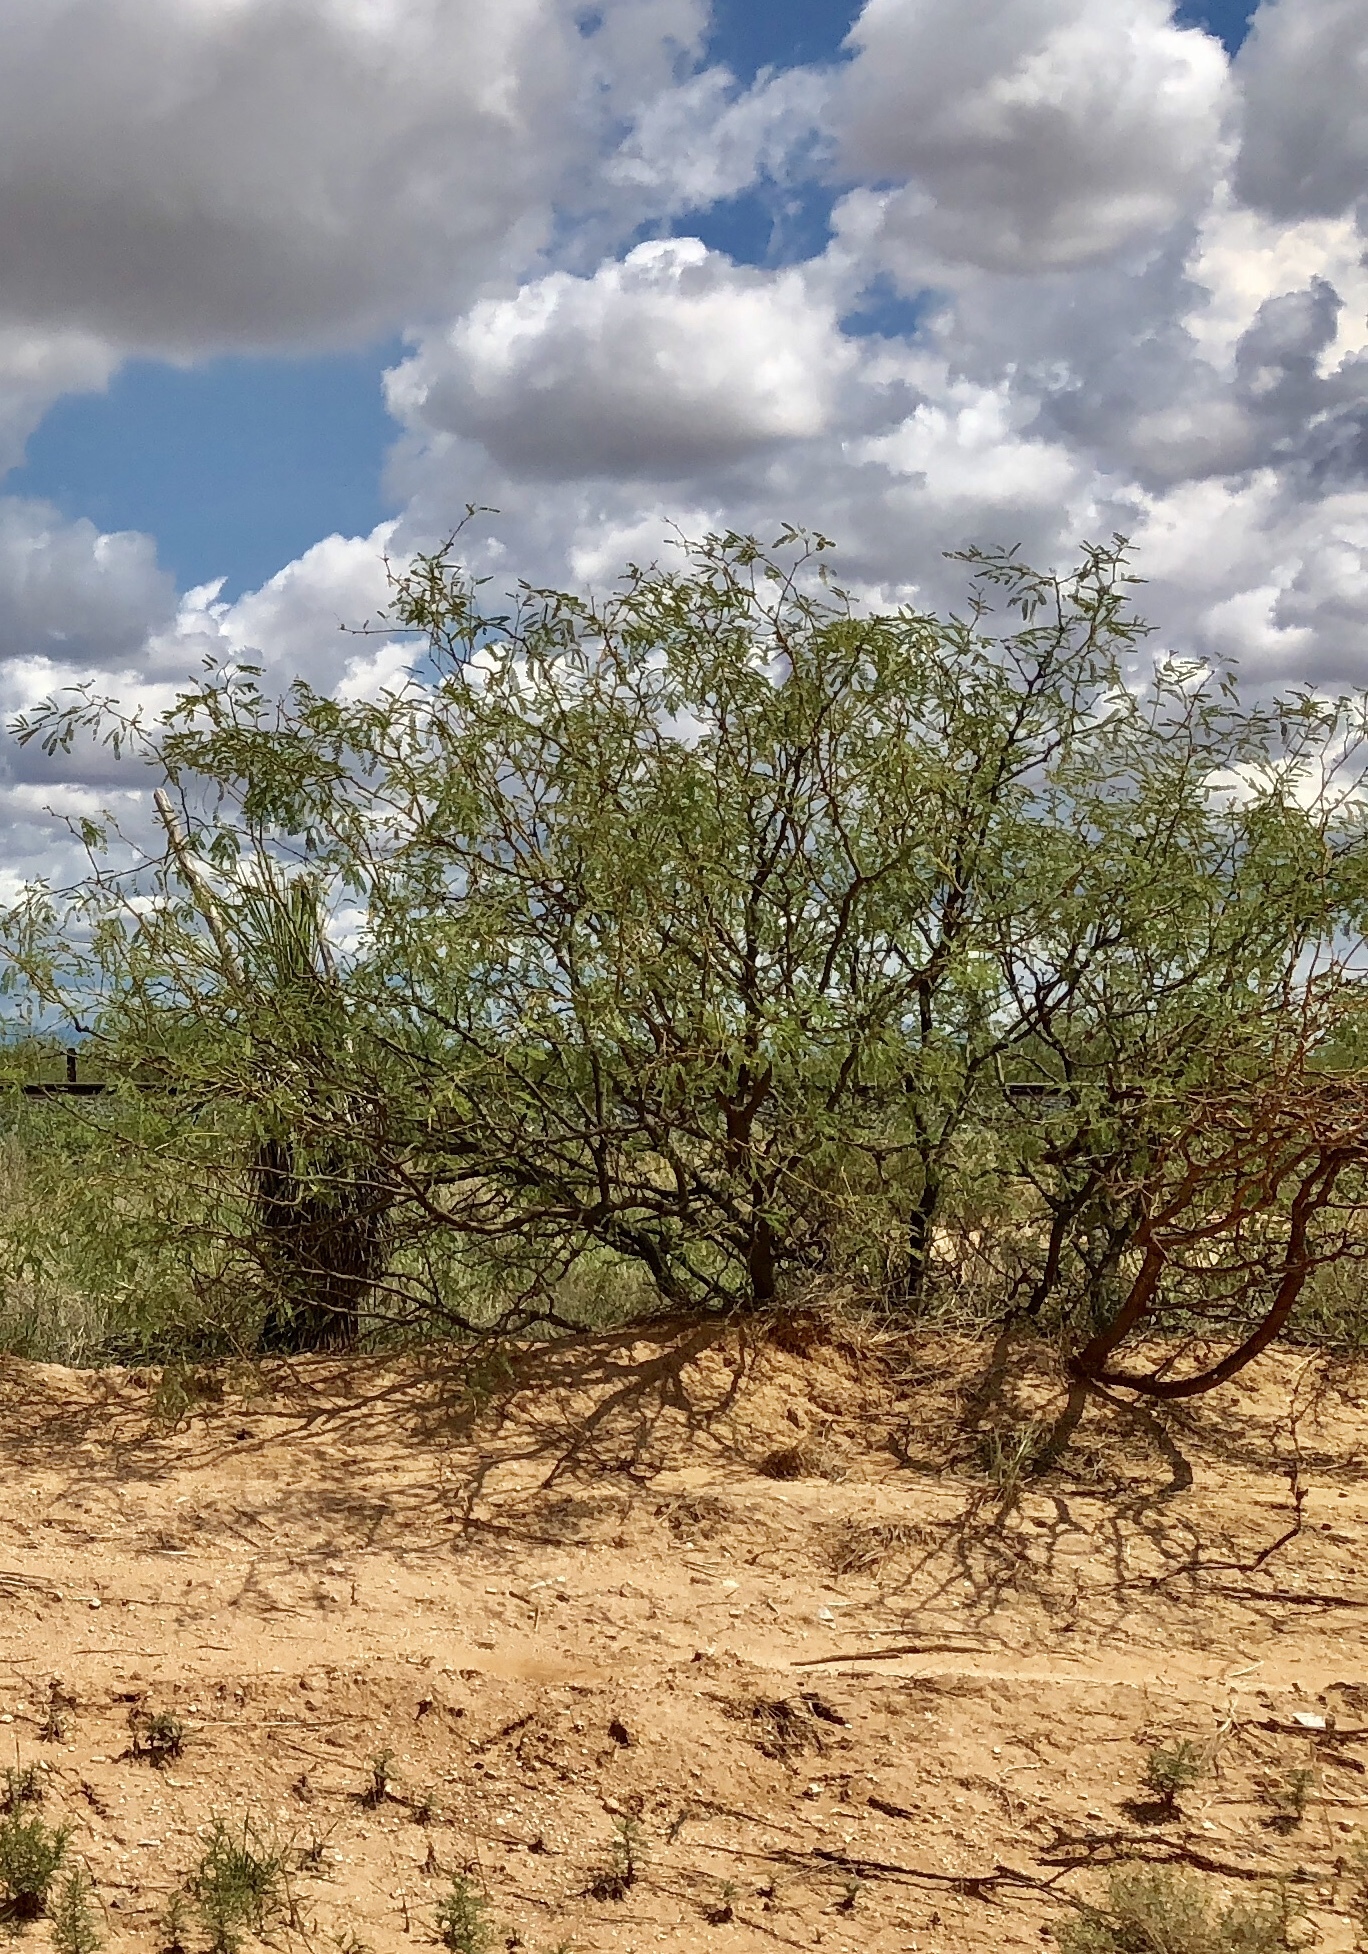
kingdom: Plantae
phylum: Tracheophyta
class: Magnoliopsida
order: Fabales
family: Fabaceae
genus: Prosopis
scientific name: Prosopis glandulosa
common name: Honey mesquite
